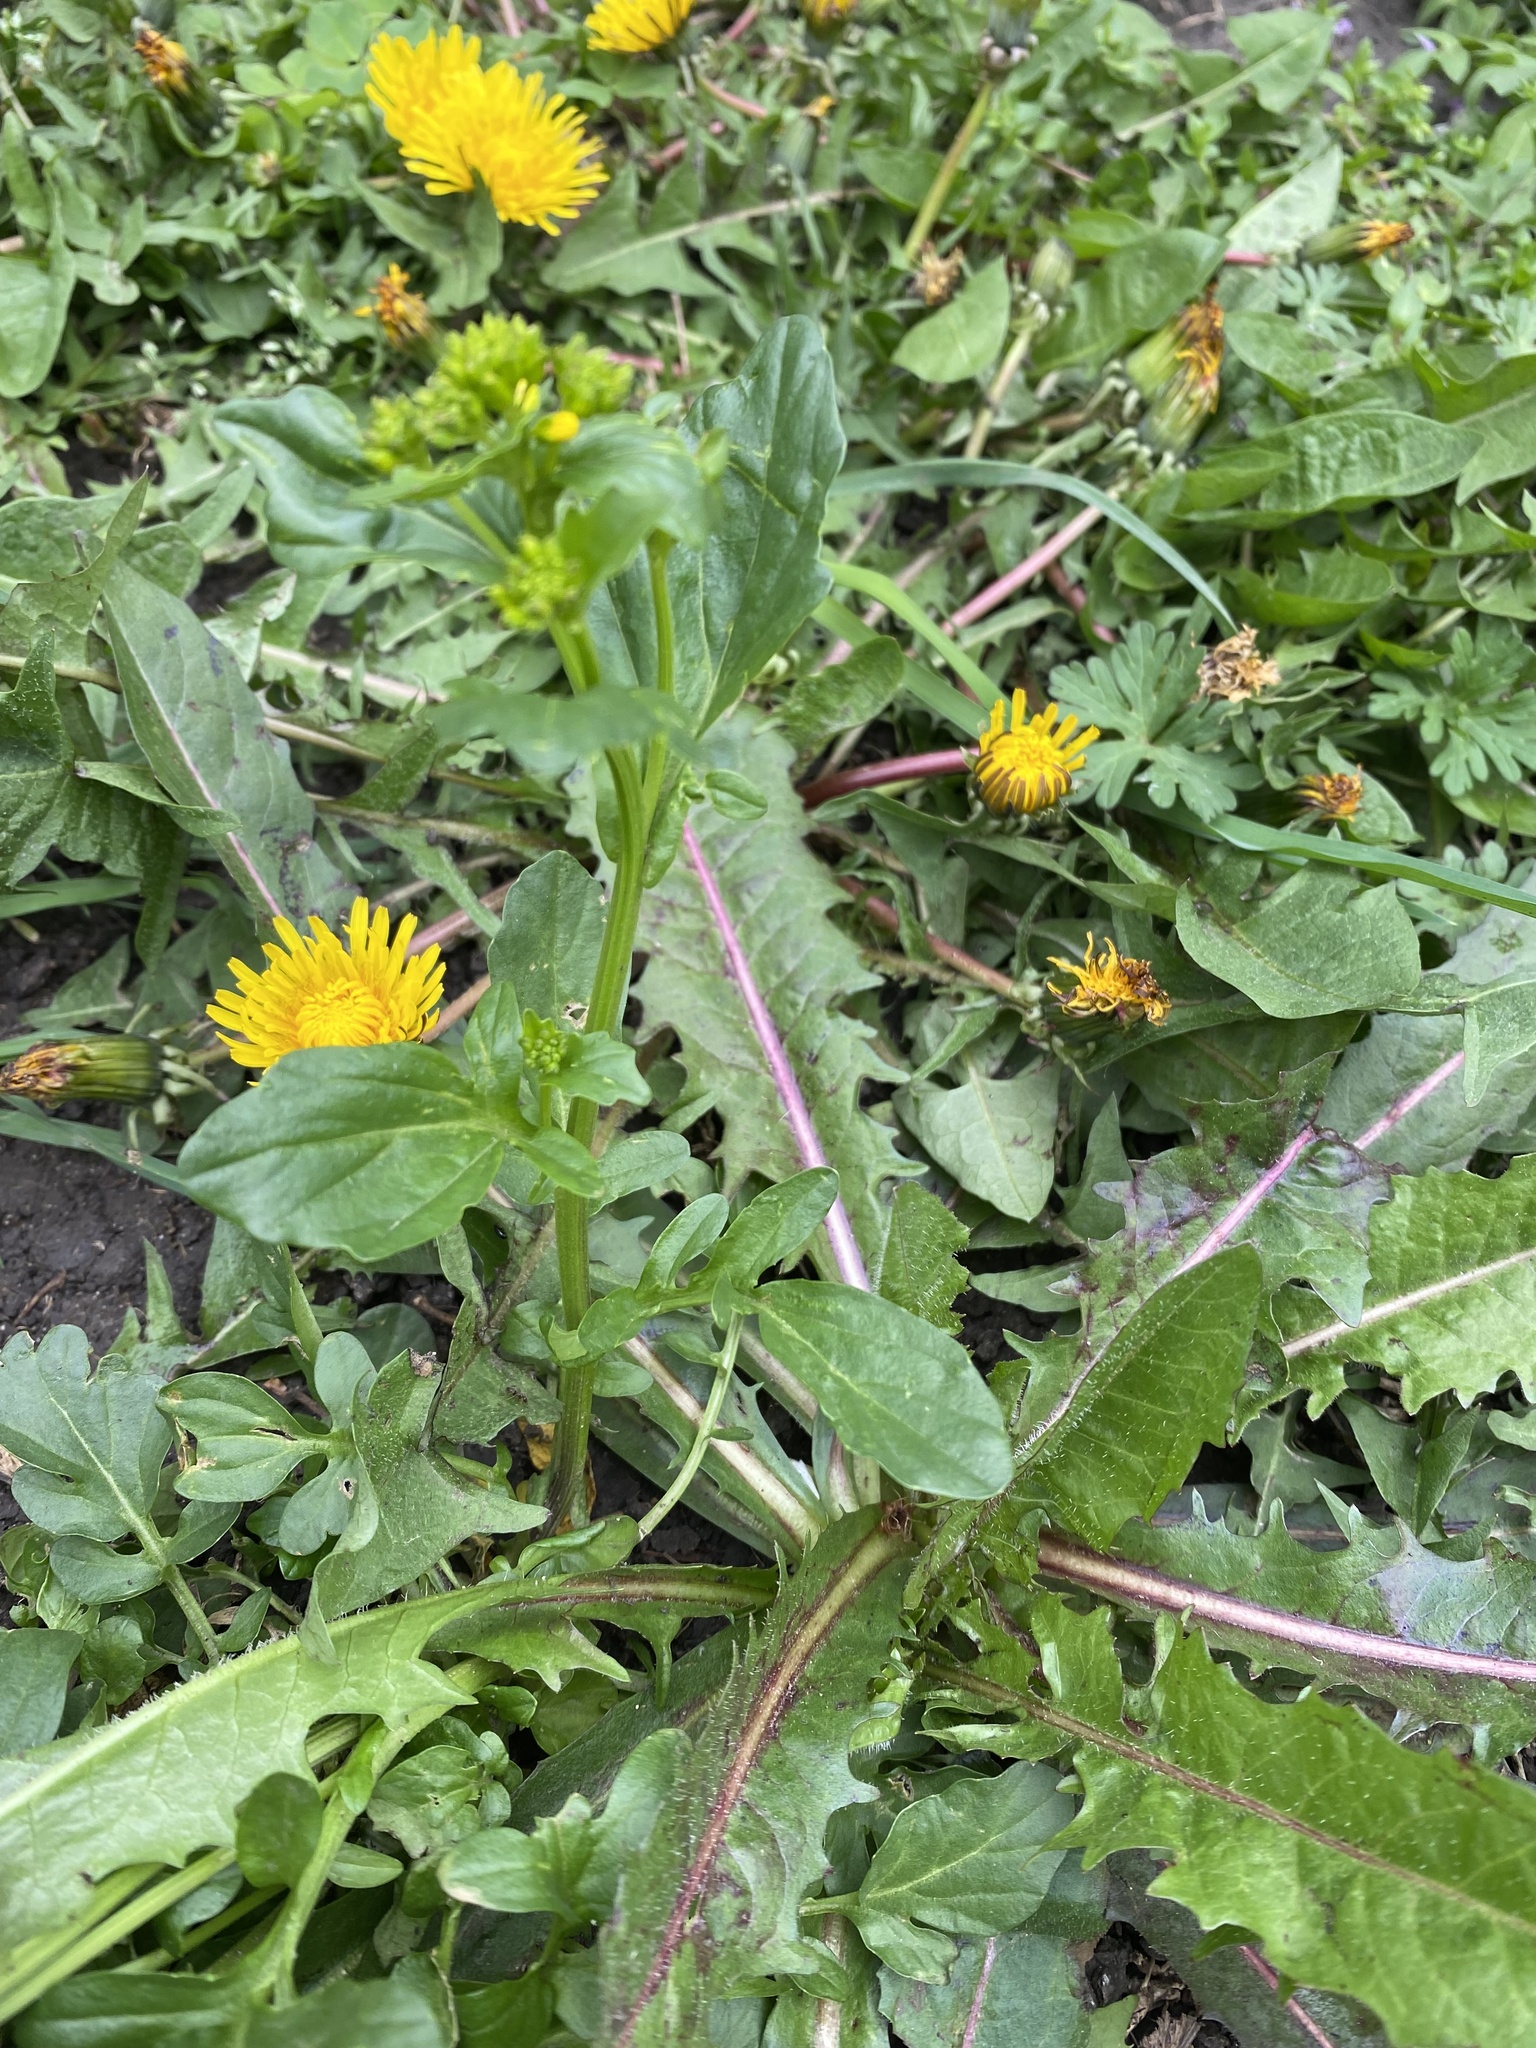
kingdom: Plantae
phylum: Tracheophyta
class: Magnoliopsida
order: Brassicales
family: Brassicaceae
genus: Barbarea
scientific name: Barbarea vulgaris
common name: Cressy-greens
